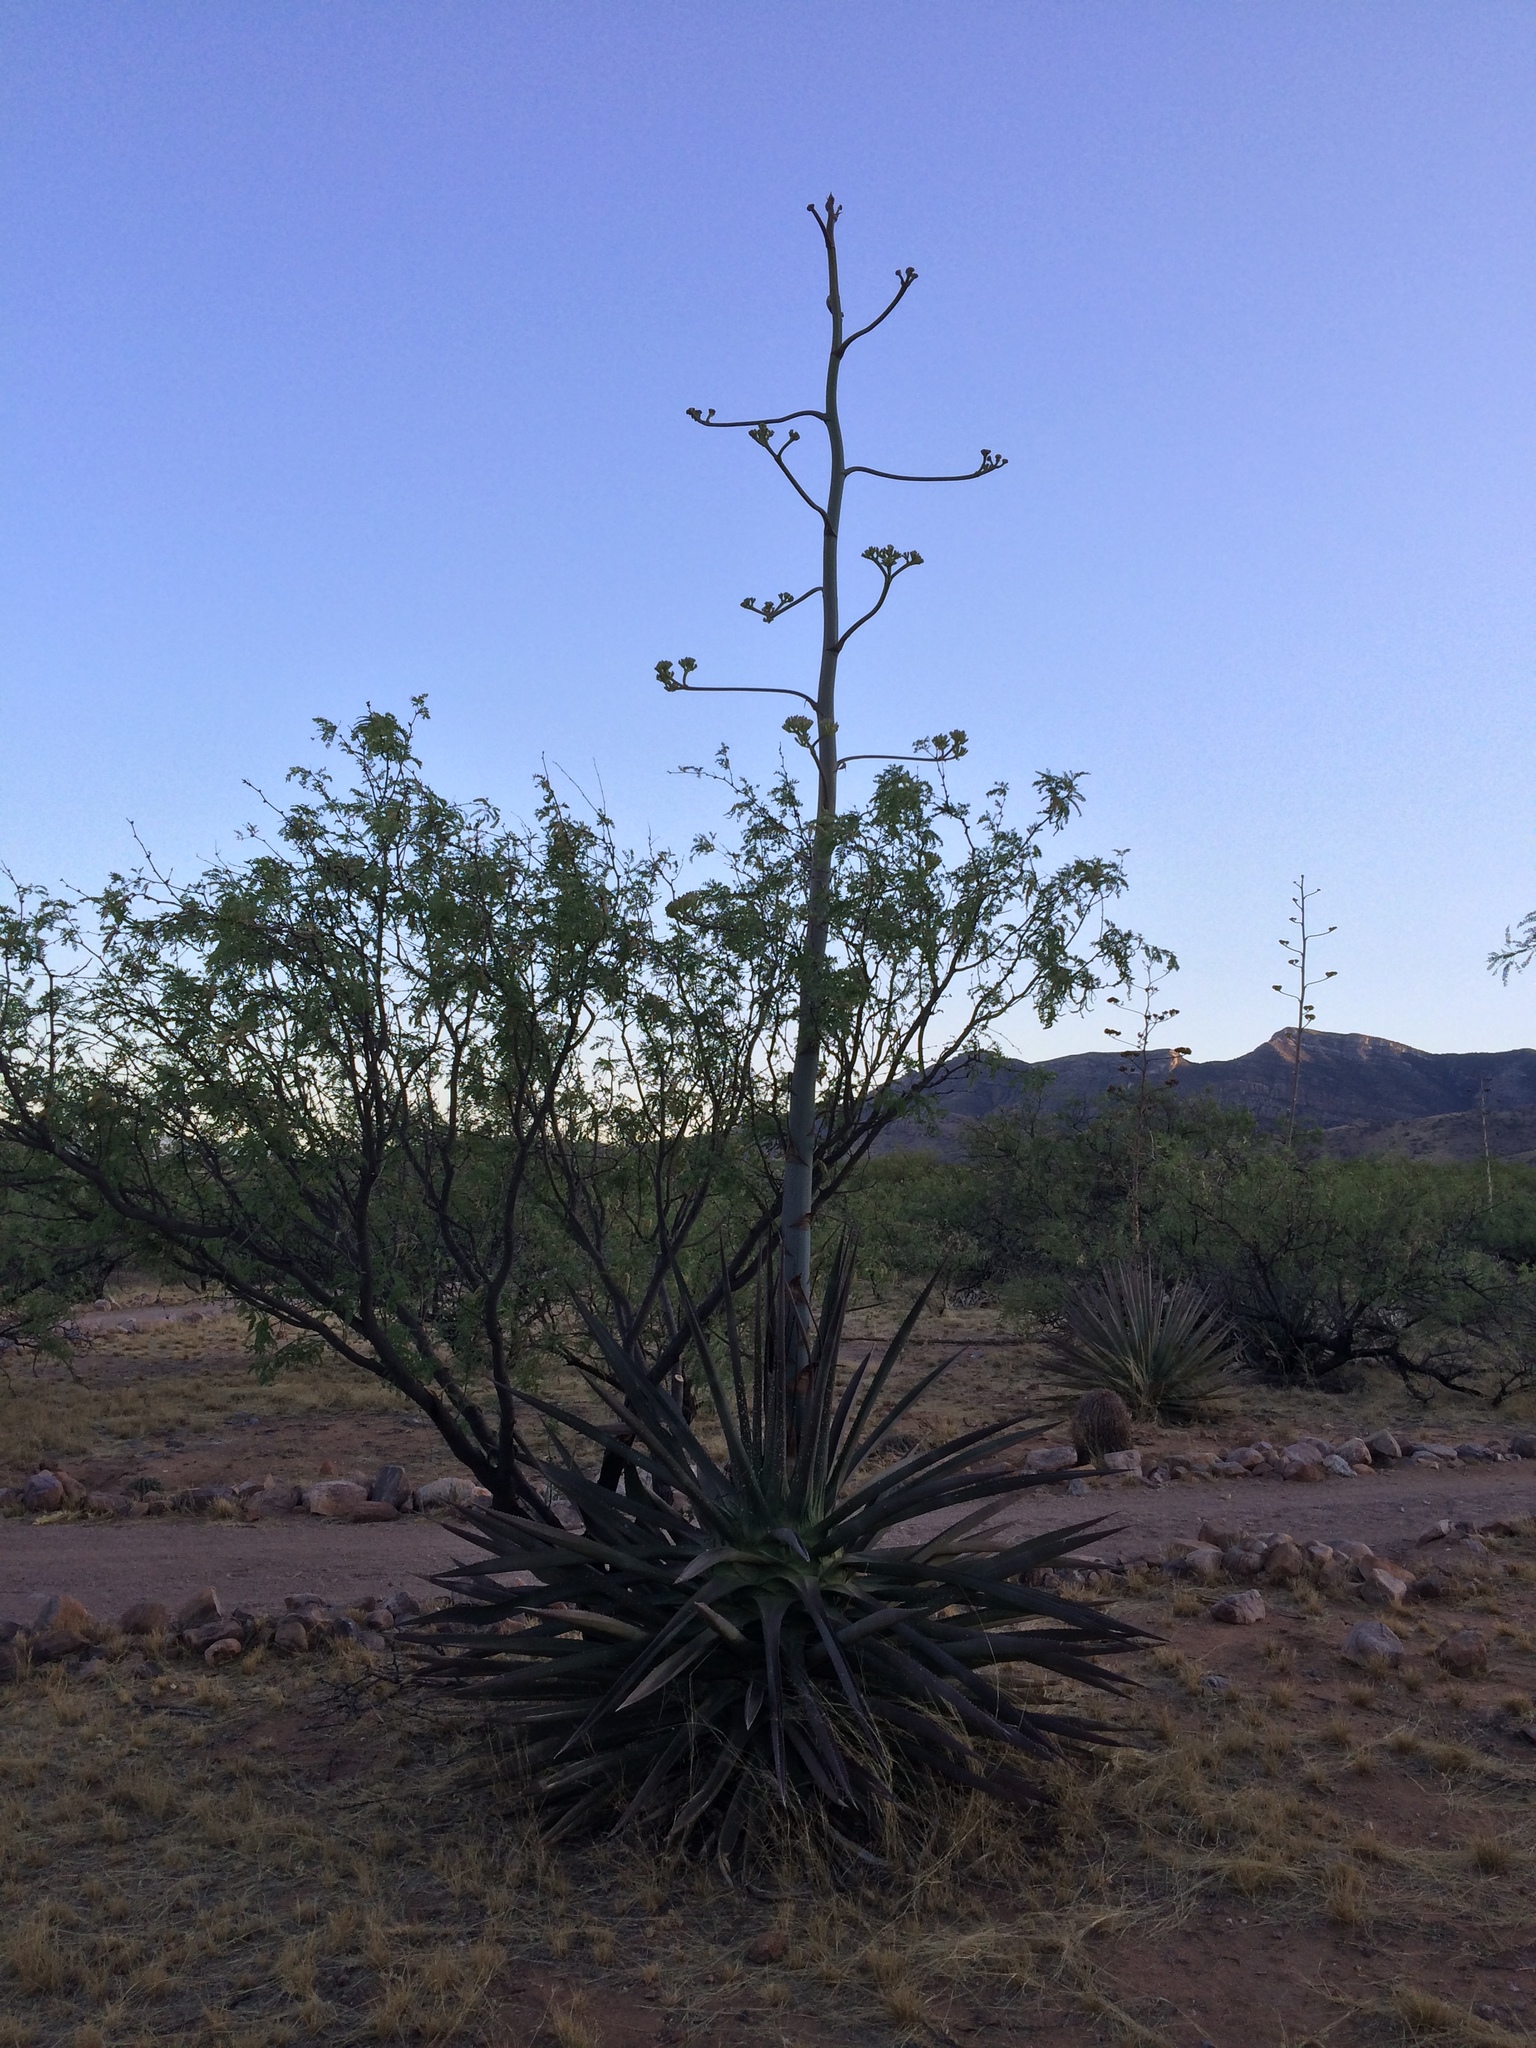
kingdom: Plantae
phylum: Tracheophyta
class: Liliopsida
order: Asparagales
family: Asparagaceae
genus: Agave
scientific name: Agave palmeri
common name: Palmer agave
